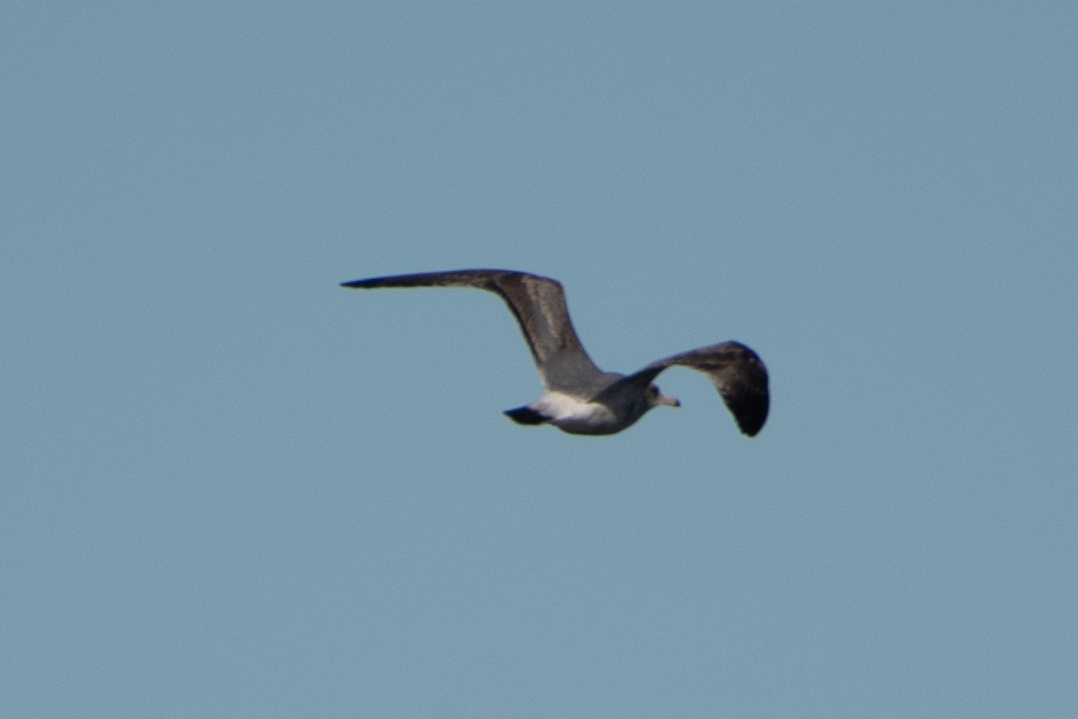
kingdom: Animalia
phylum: Chordata
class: Aves
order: Charadriiformes
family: Laridae
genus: Larus
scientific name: Larus californicus
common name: California gull
